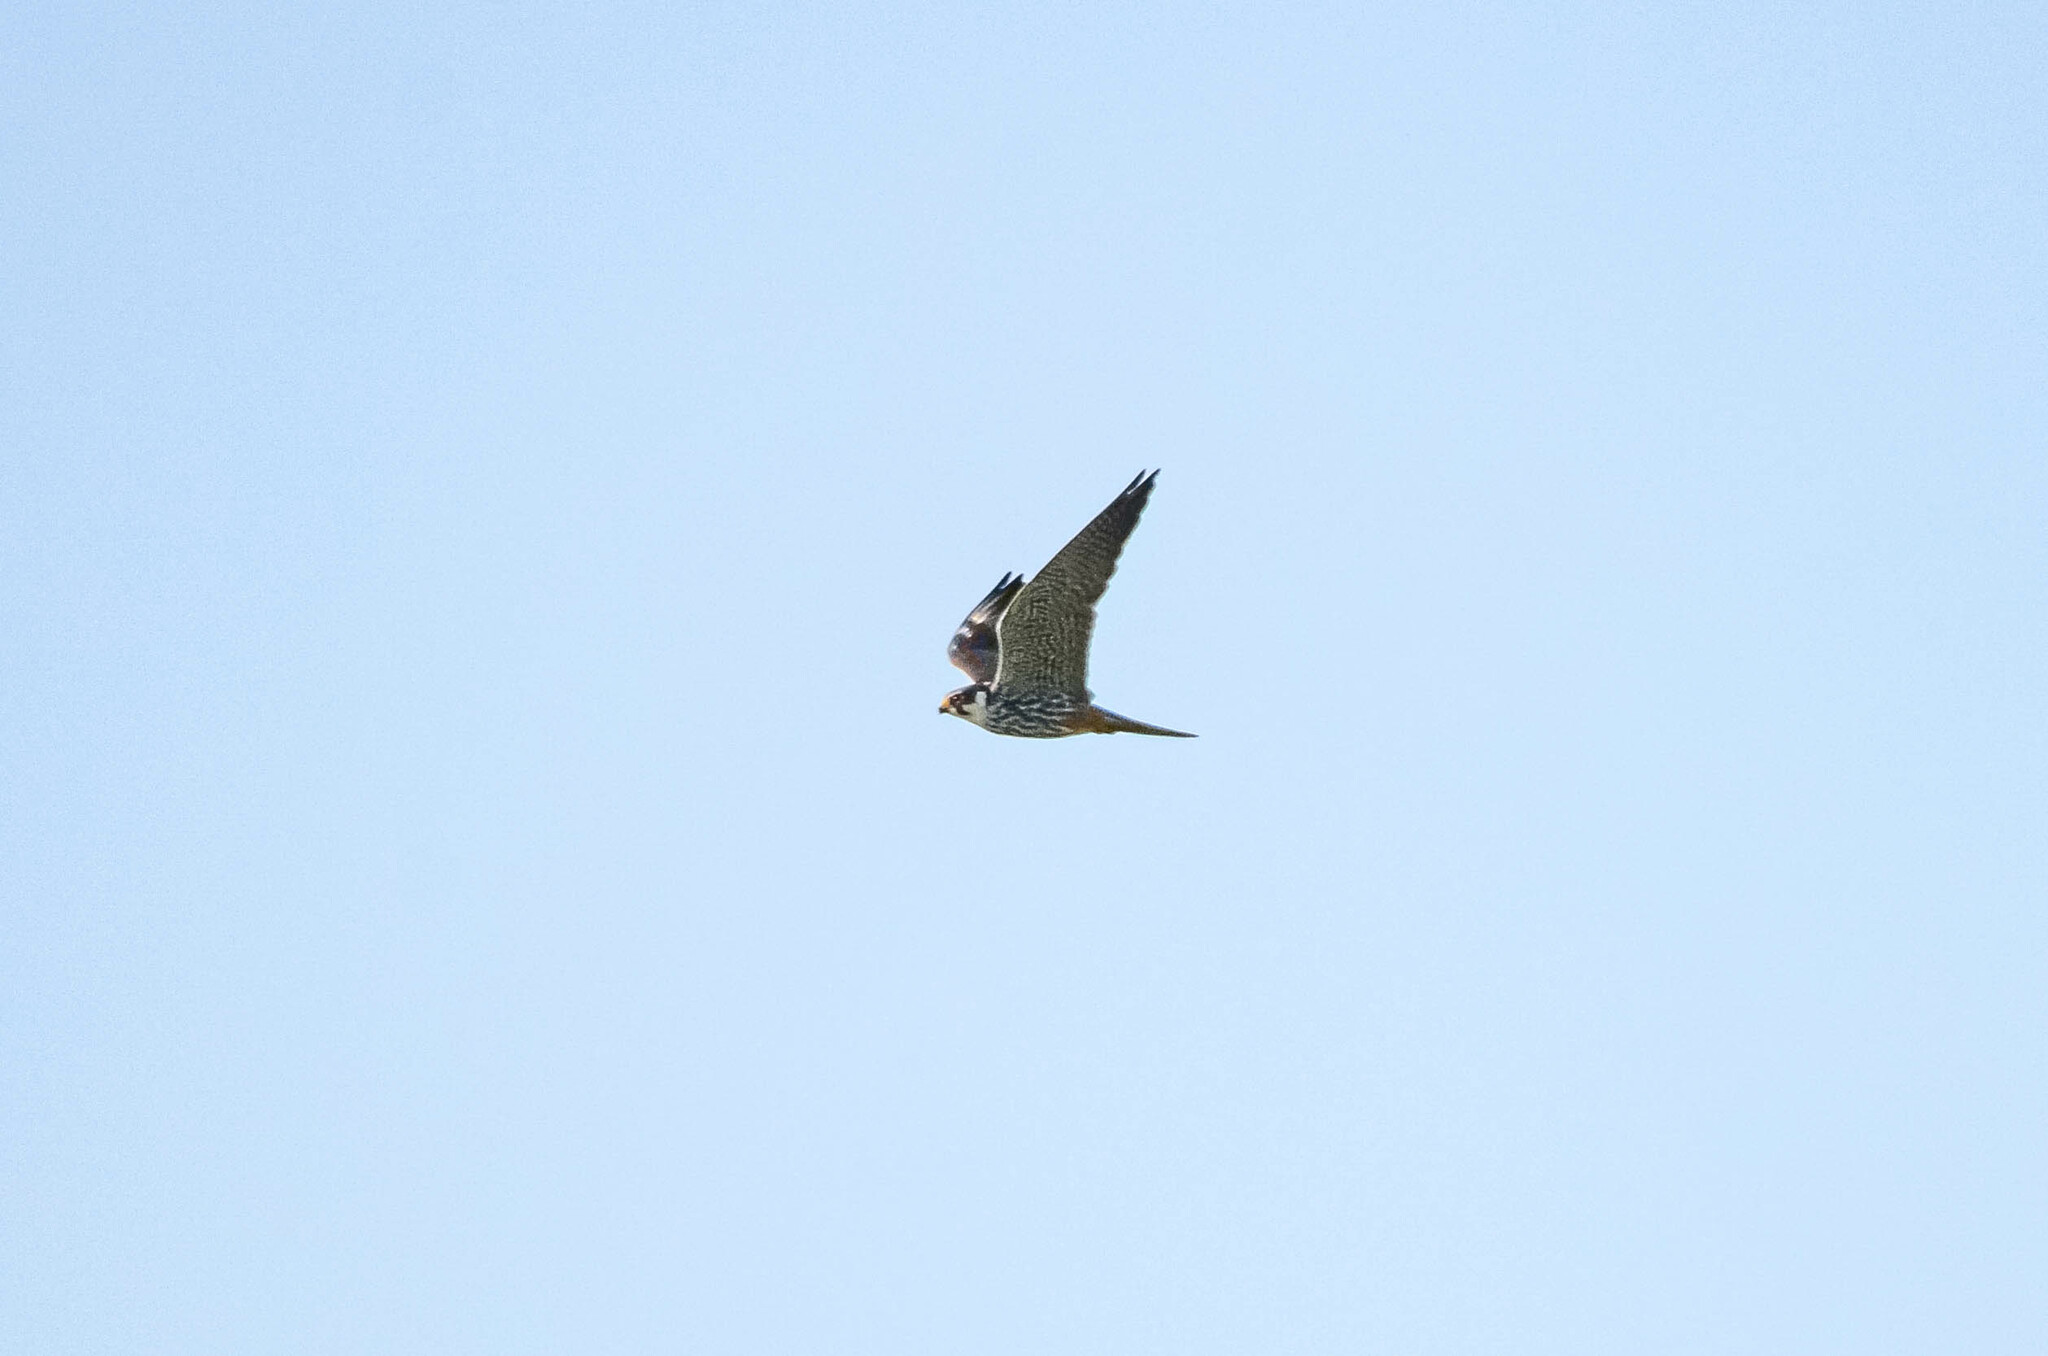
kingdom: Animalia
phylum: Chordata
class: Aves
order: Falconiformes
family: Falconidae
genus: Falco
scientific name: Falco subbuteo
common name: Eurasian hobby
